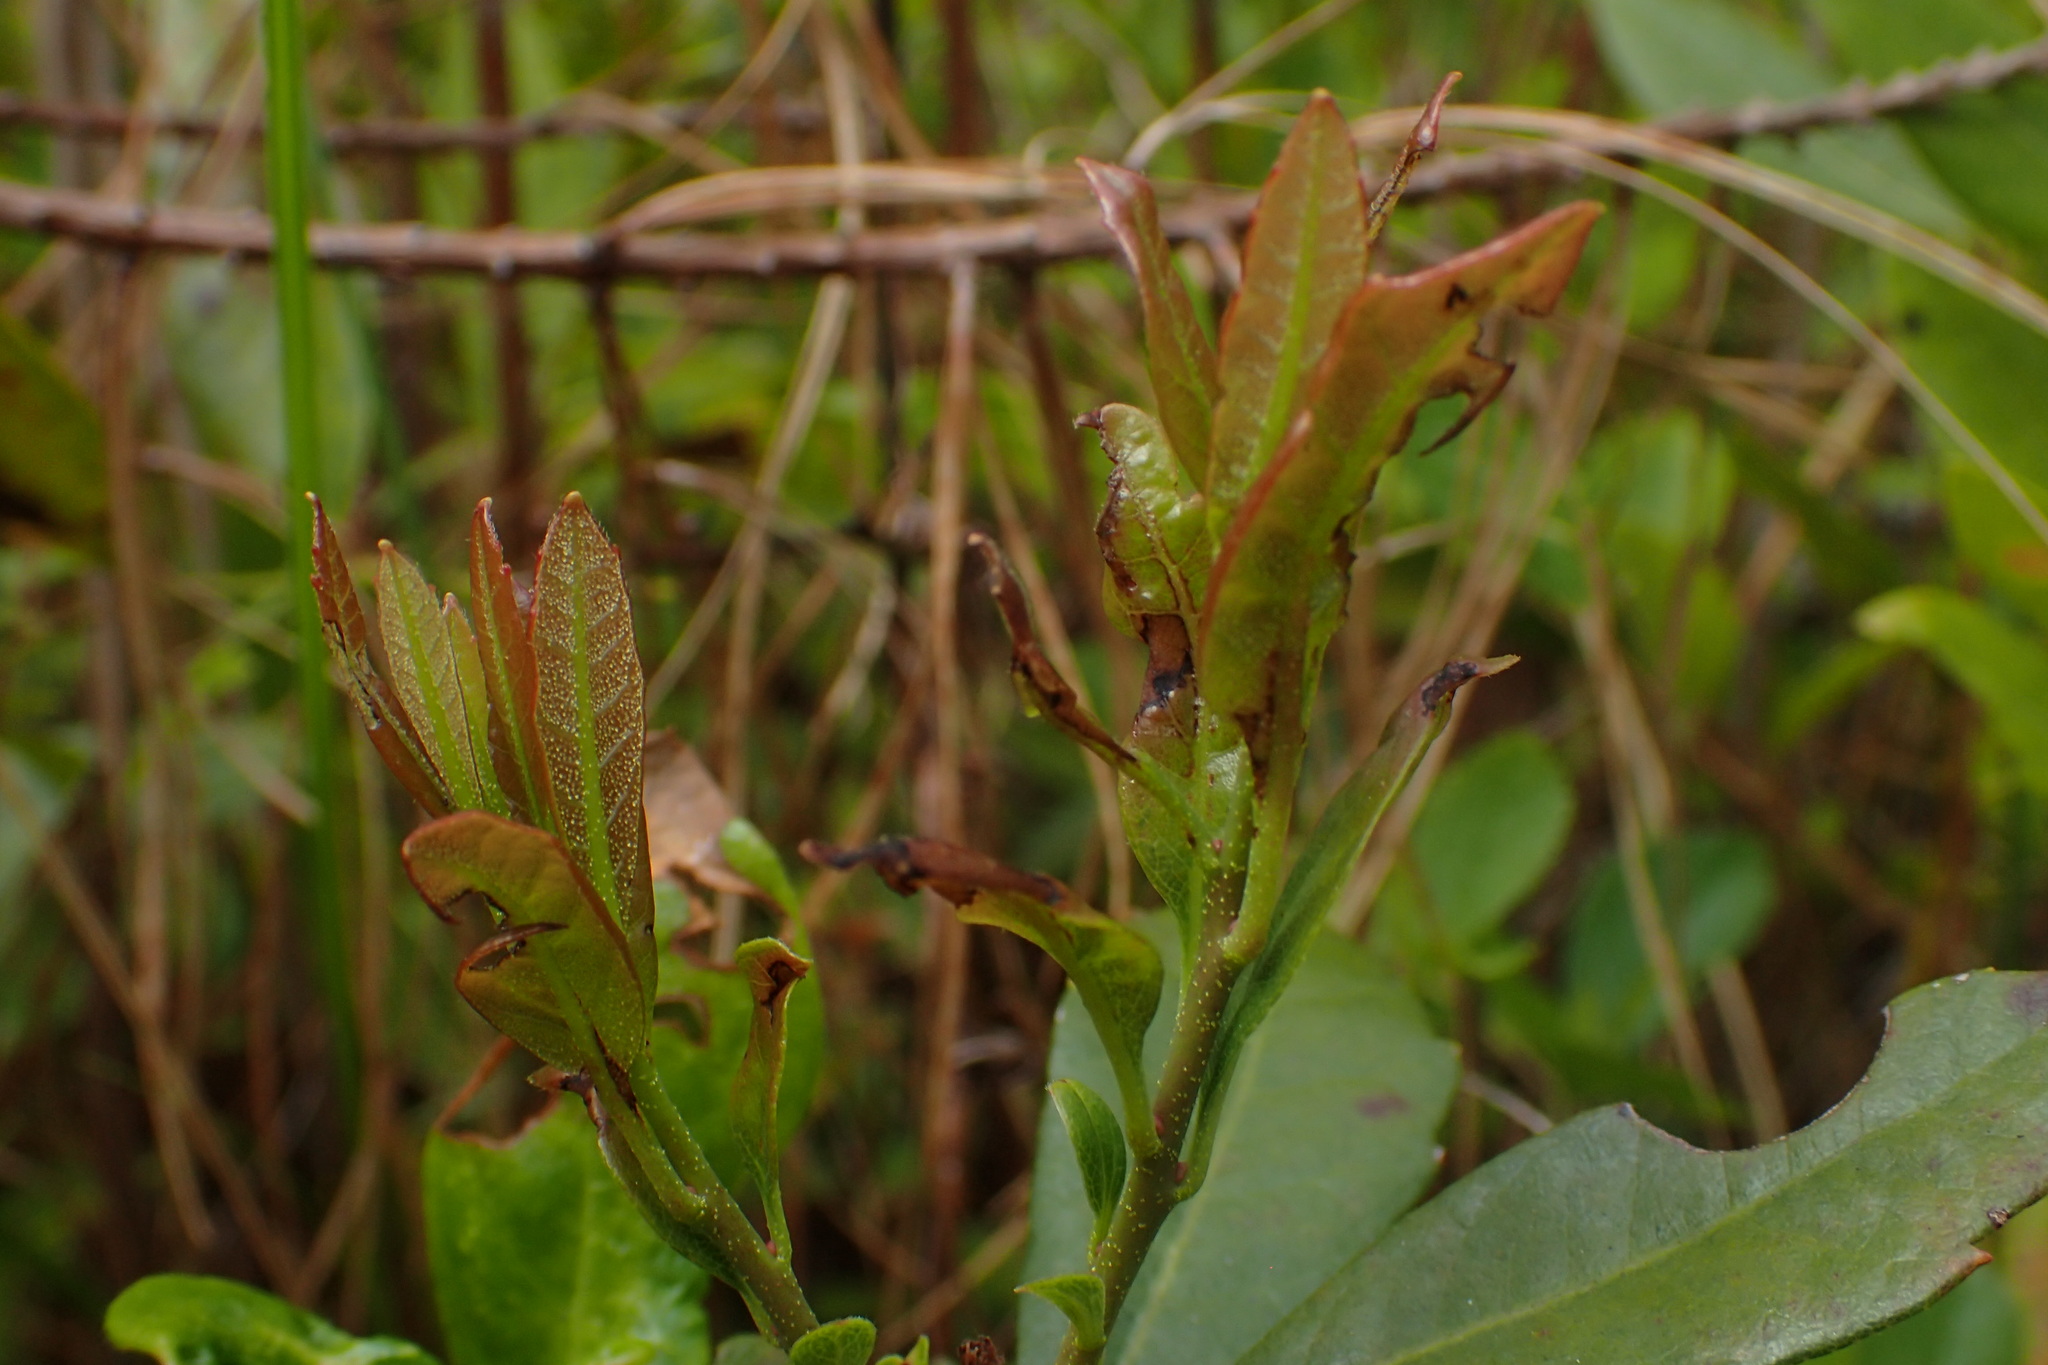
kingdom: Plantae
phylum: Tracheophyta
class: Magnoliopsida
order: Fagales
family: Myricaceae
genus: Morella
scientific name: Morella caroliniensis
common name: Evergreen bayberry
